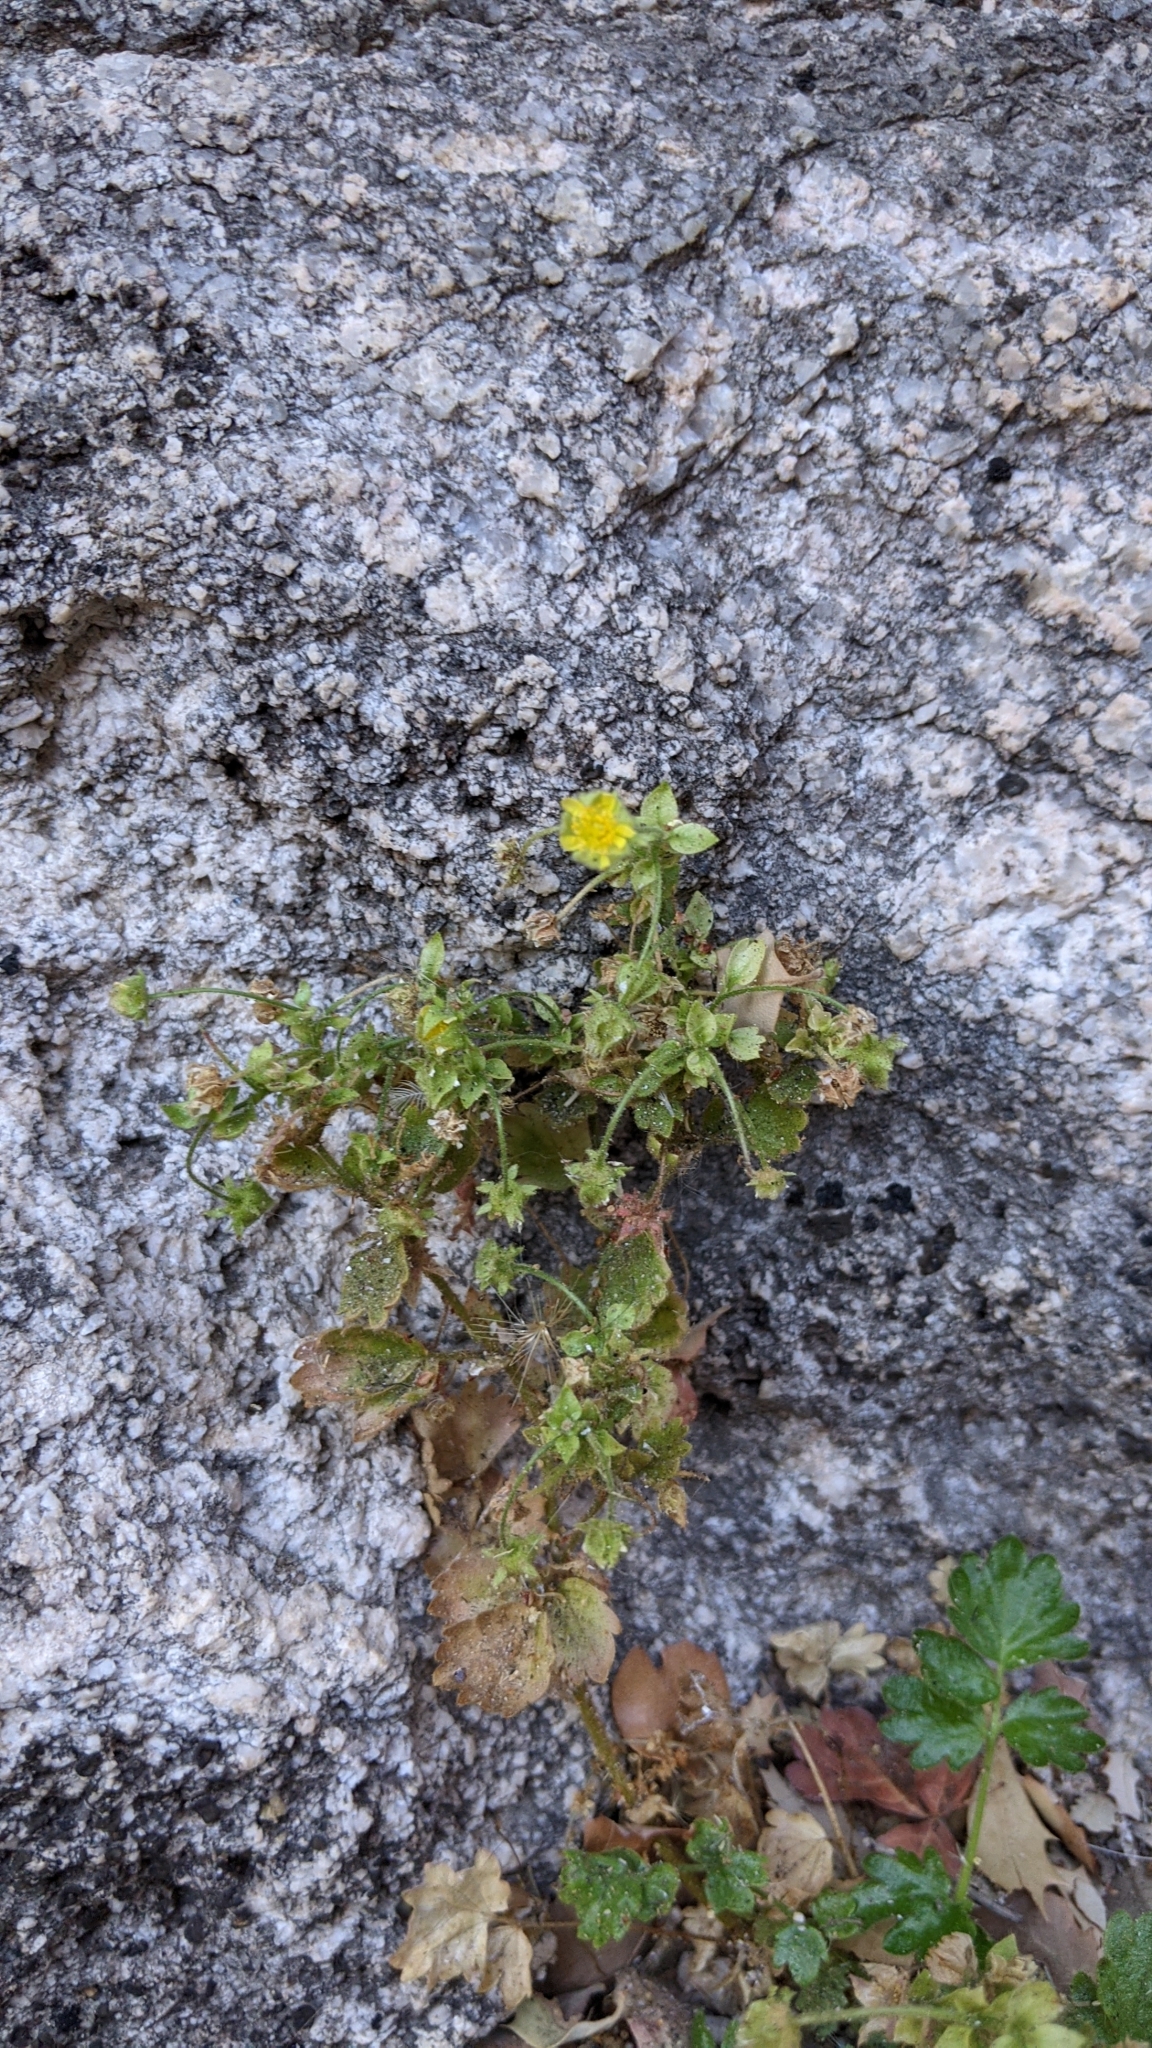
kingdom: Plantae
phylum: Tracheophyta
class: Magnoliopsida
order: Rosales
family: Rosaceae
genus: Potentilla
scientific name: Potentilla saxosa
